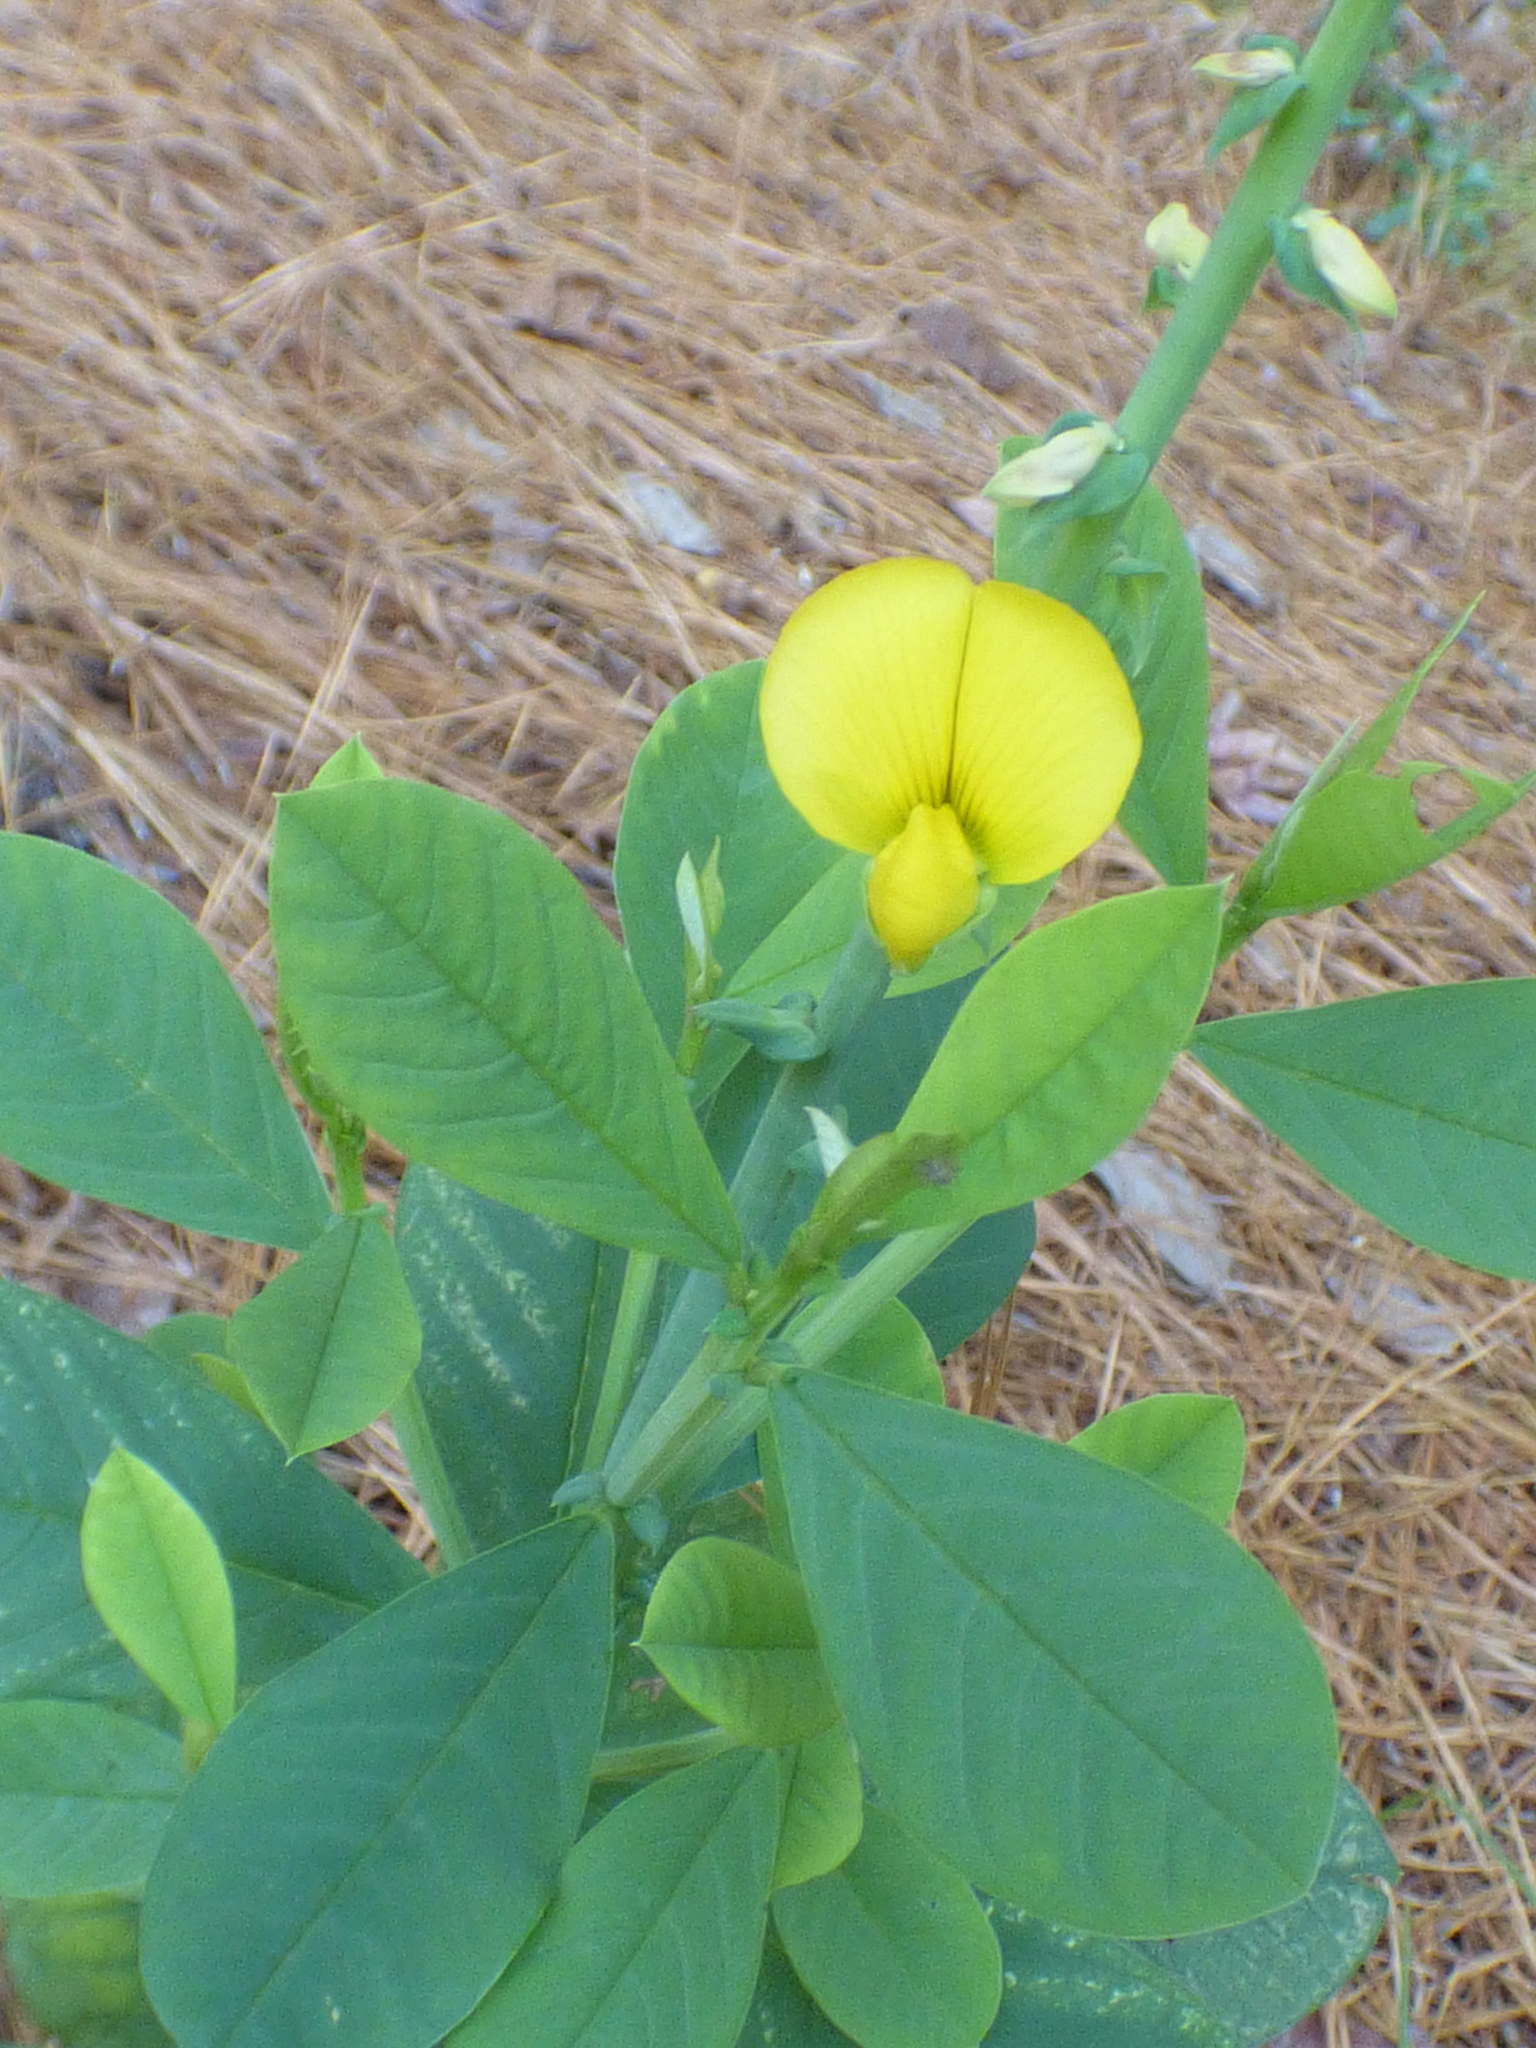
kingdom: Plantae
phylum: Tracheophyta
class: Magnoliopsida
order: Fabales
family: Fabaceae
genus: Crotalaria
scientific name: Crotalaria spectabilis
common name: Showy rattlebox
